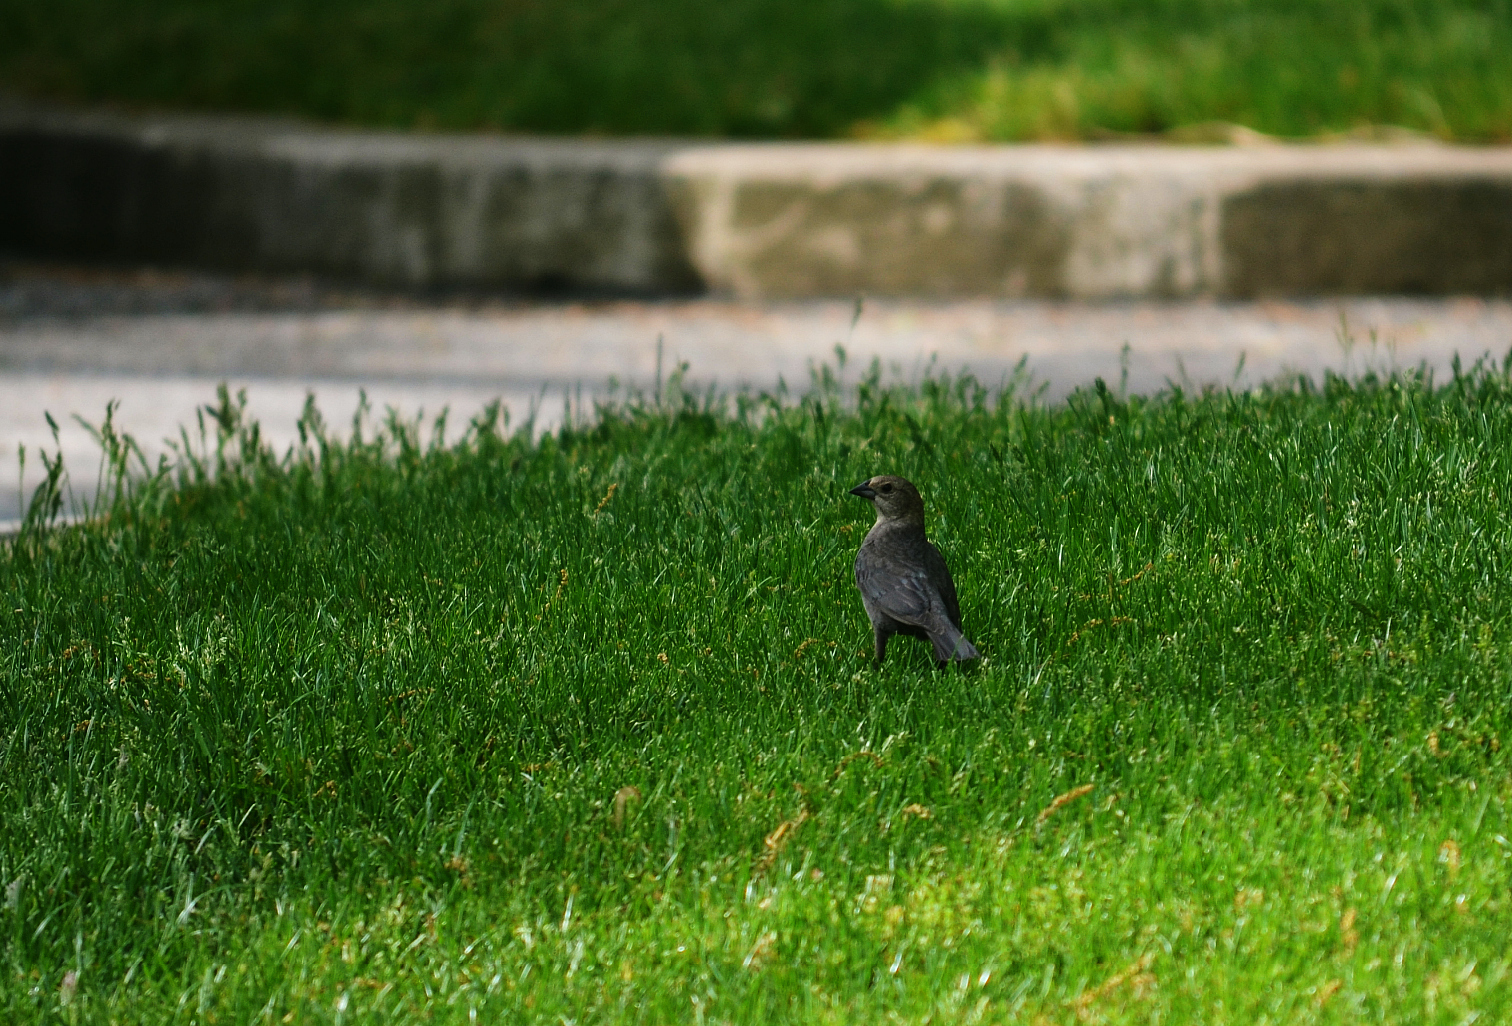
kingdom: Animalia
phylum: Chordata
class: Aves
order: Passeriformes
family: Icteridae
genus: Molothrus
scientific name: Molothrus ater
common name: Brown-headed cowbird
